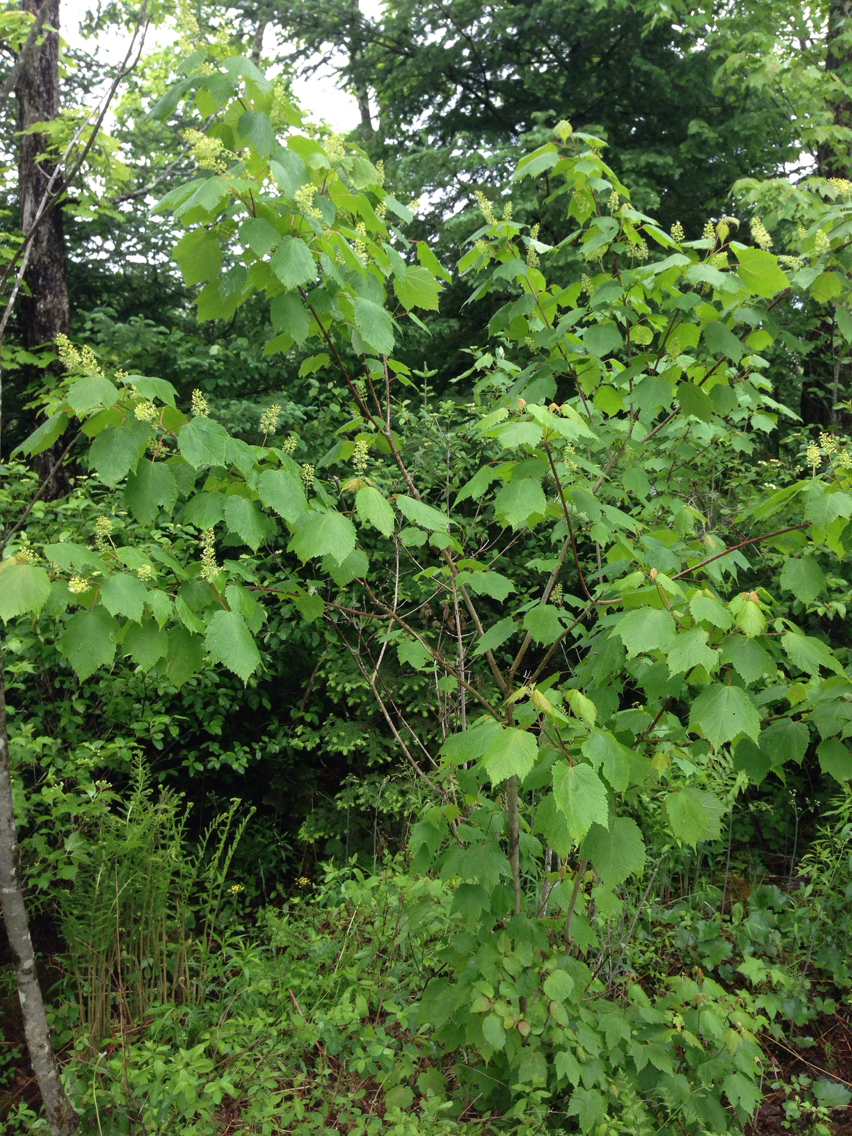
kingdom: Plantae
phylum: Tracheophyta
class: Magnoliopsida
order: Sapindales
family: Sapindaceae
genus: Acer
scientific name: Acer spicatum
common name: Mountain maple
